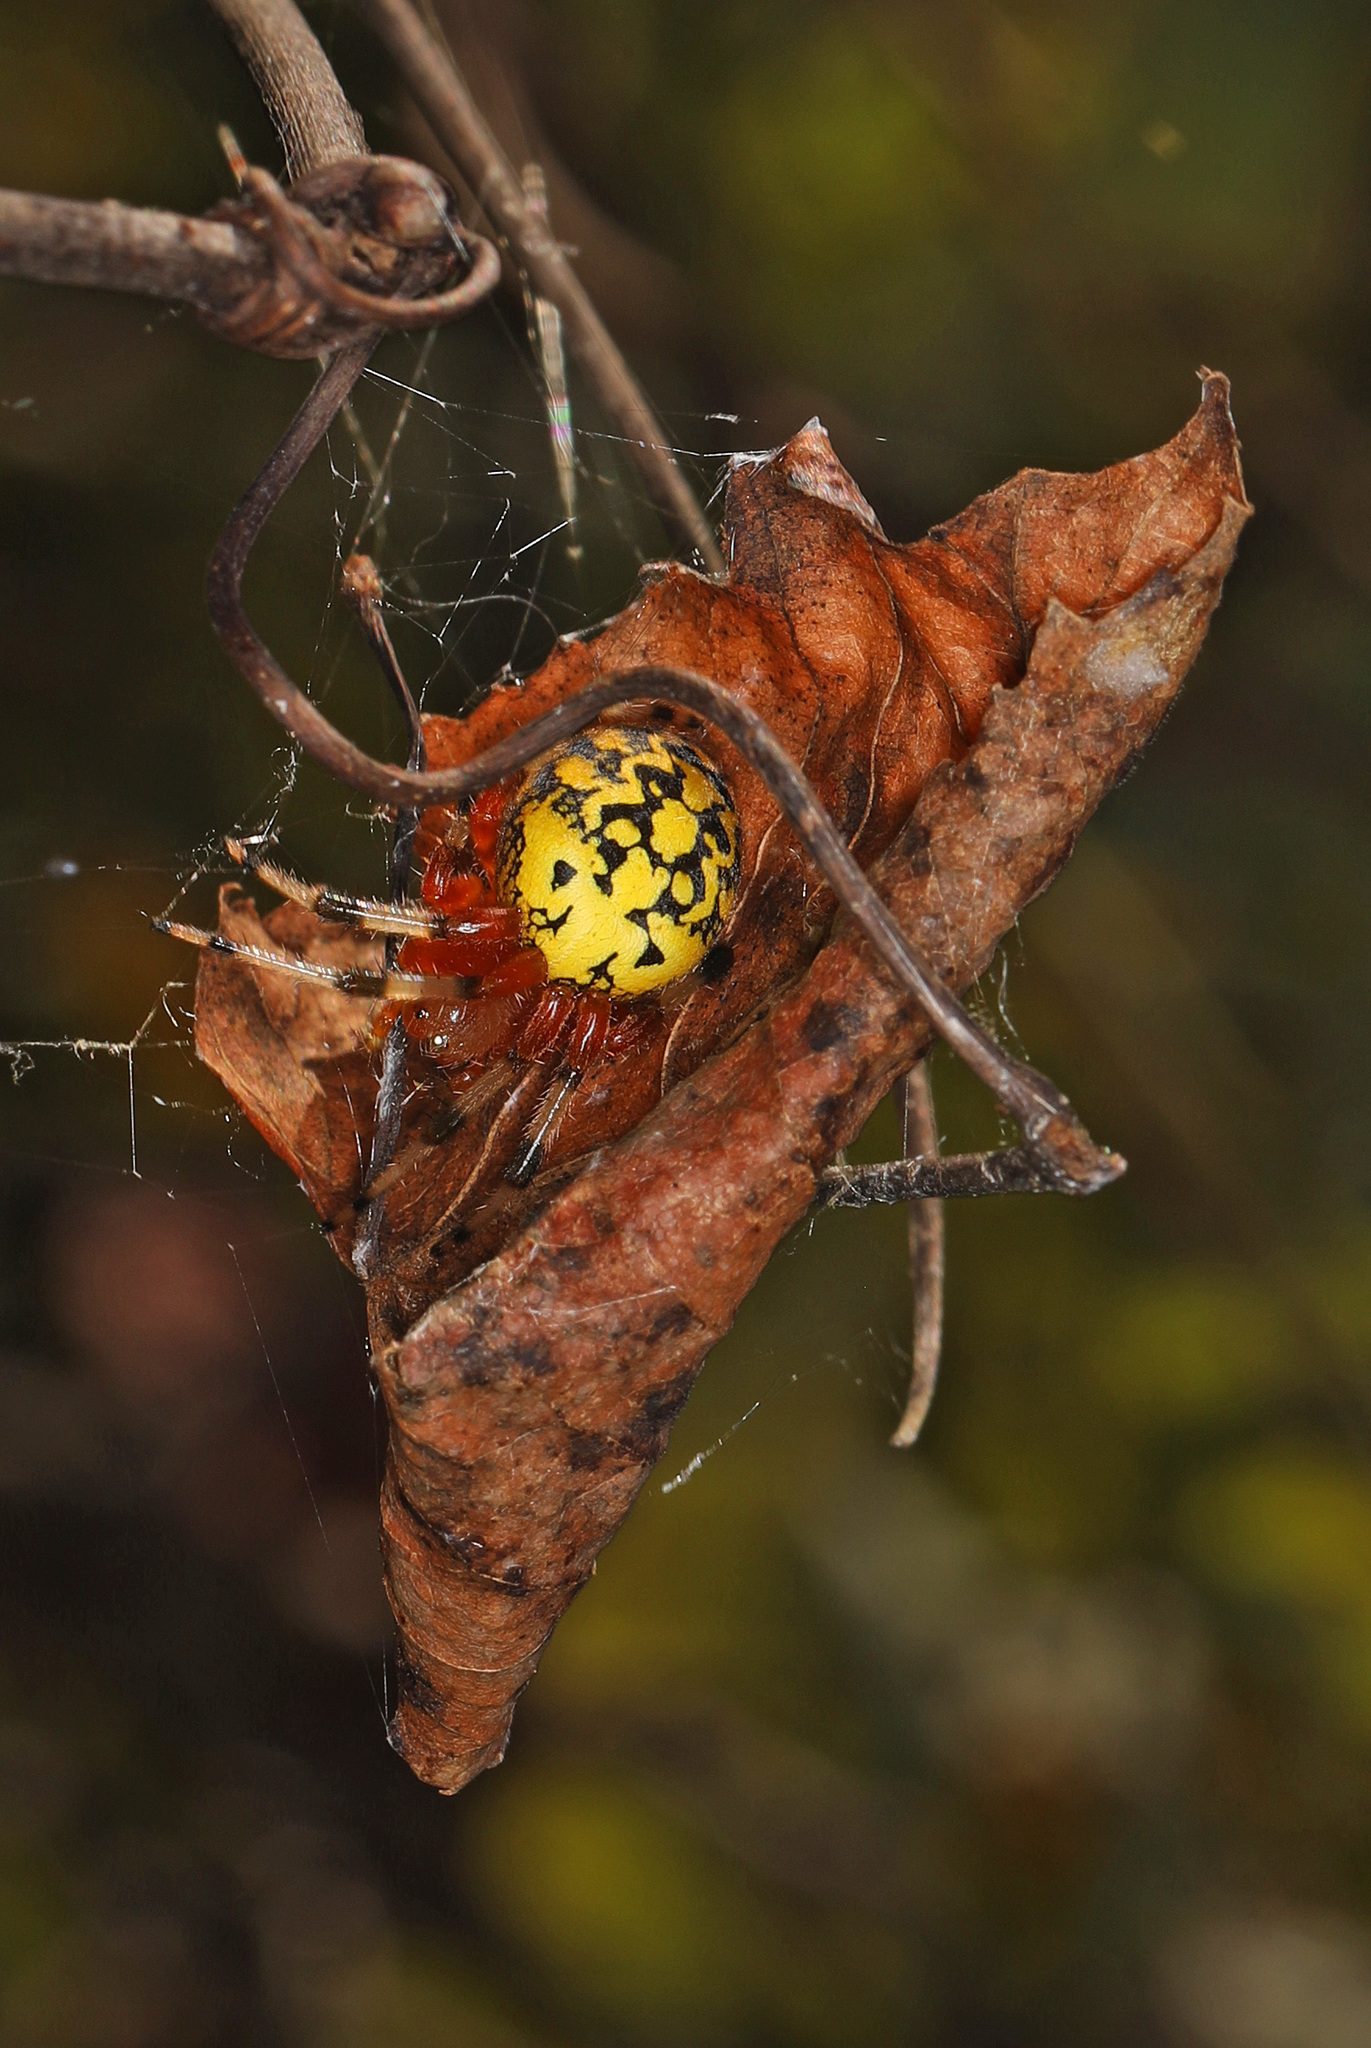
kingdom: Animalia
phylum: Arthropoda
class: Arachnida
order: Araneae
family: Araneidae
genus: Araneus
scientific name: Araneus marmoreus
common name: Marbled orbweaver
